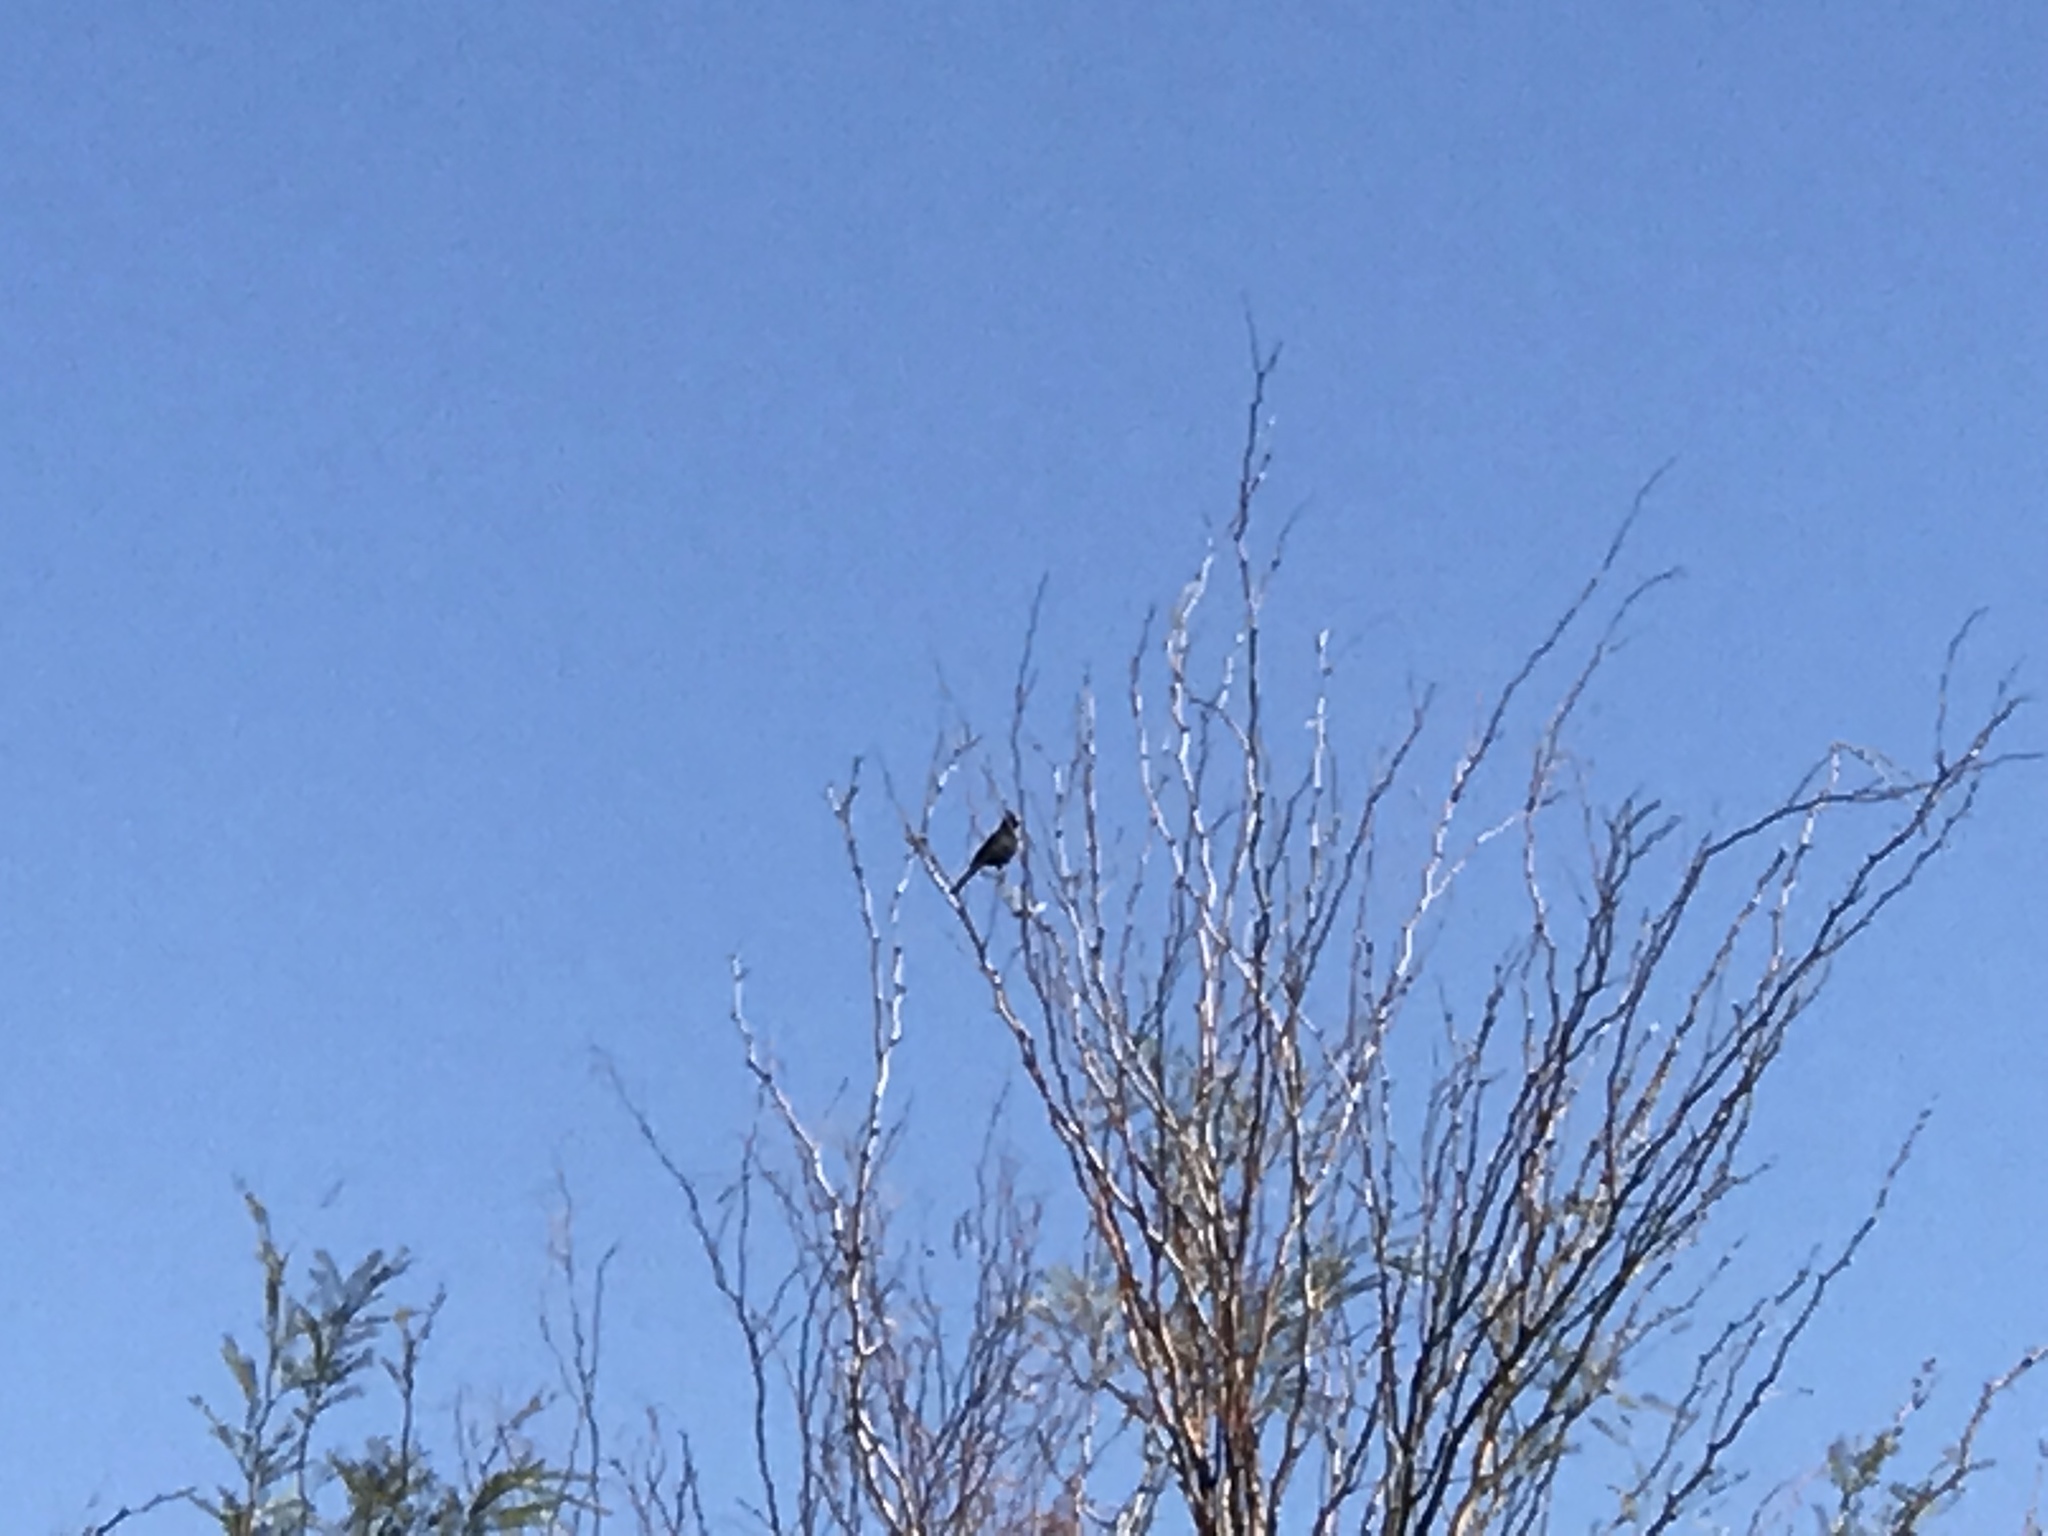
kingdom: Animalia
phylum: Chordata
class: Aves
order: Passeriformes
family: Ptilogonatidae
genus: Phainopepla
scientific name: Phainopepla nitens
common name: Phainopepla
